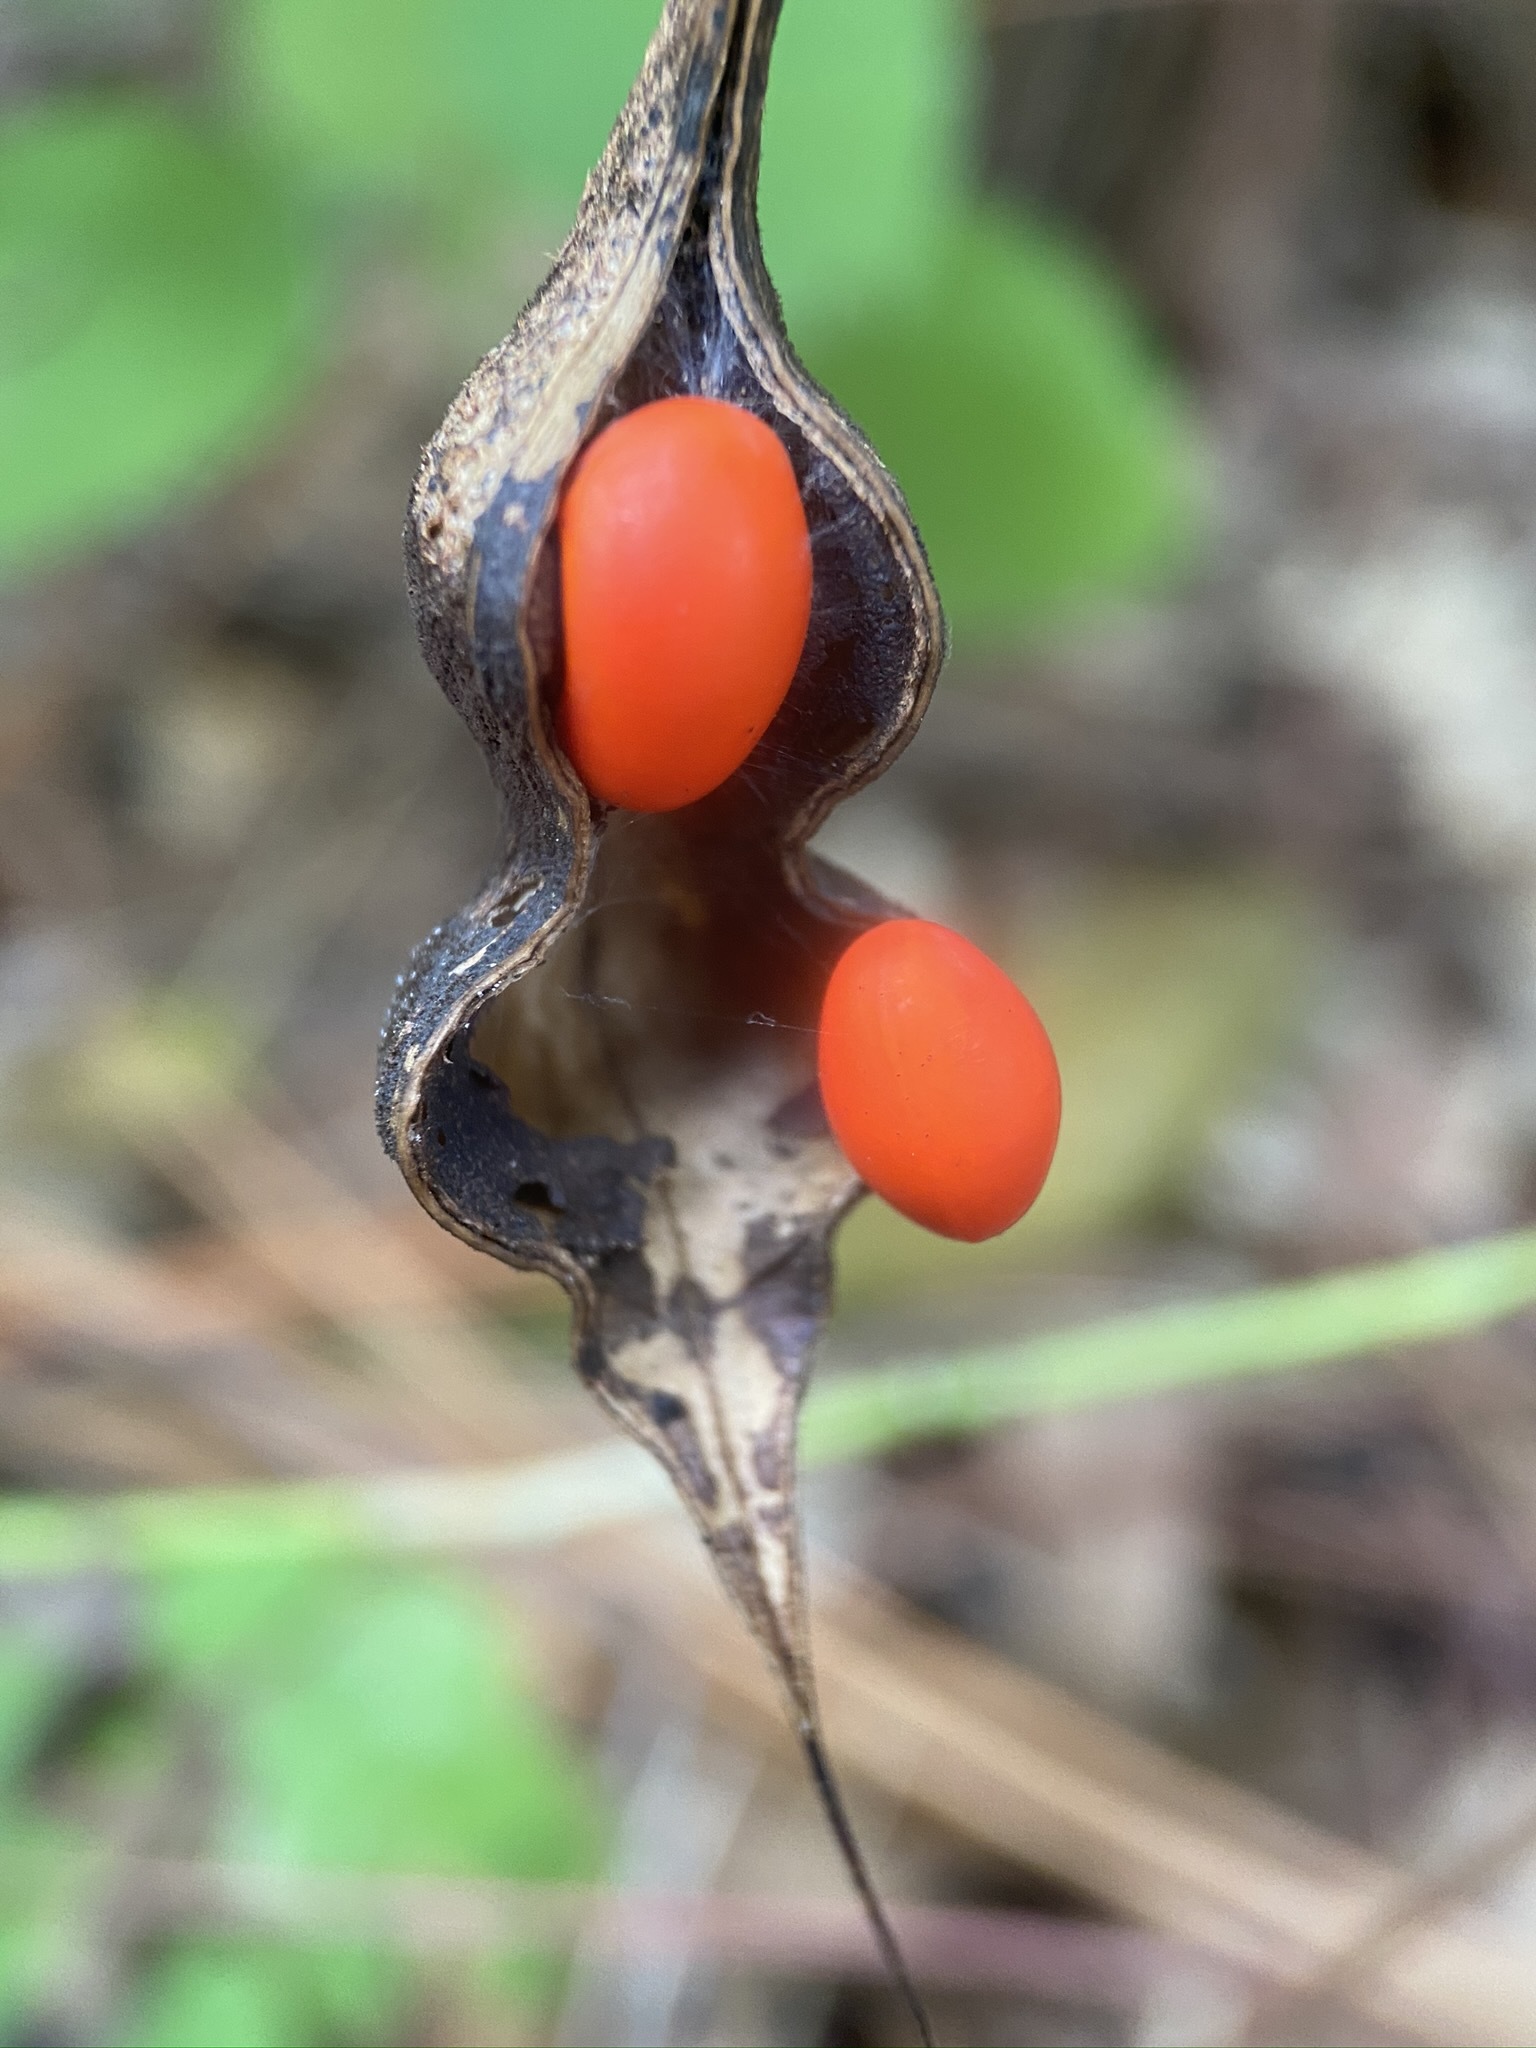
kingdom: Plantae
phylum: Tracheophyta
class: Magnoliopsida
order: Fabales
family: Fabaceae
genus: Erythrina
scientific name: Erythrina herbacea
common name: Coral-bean
